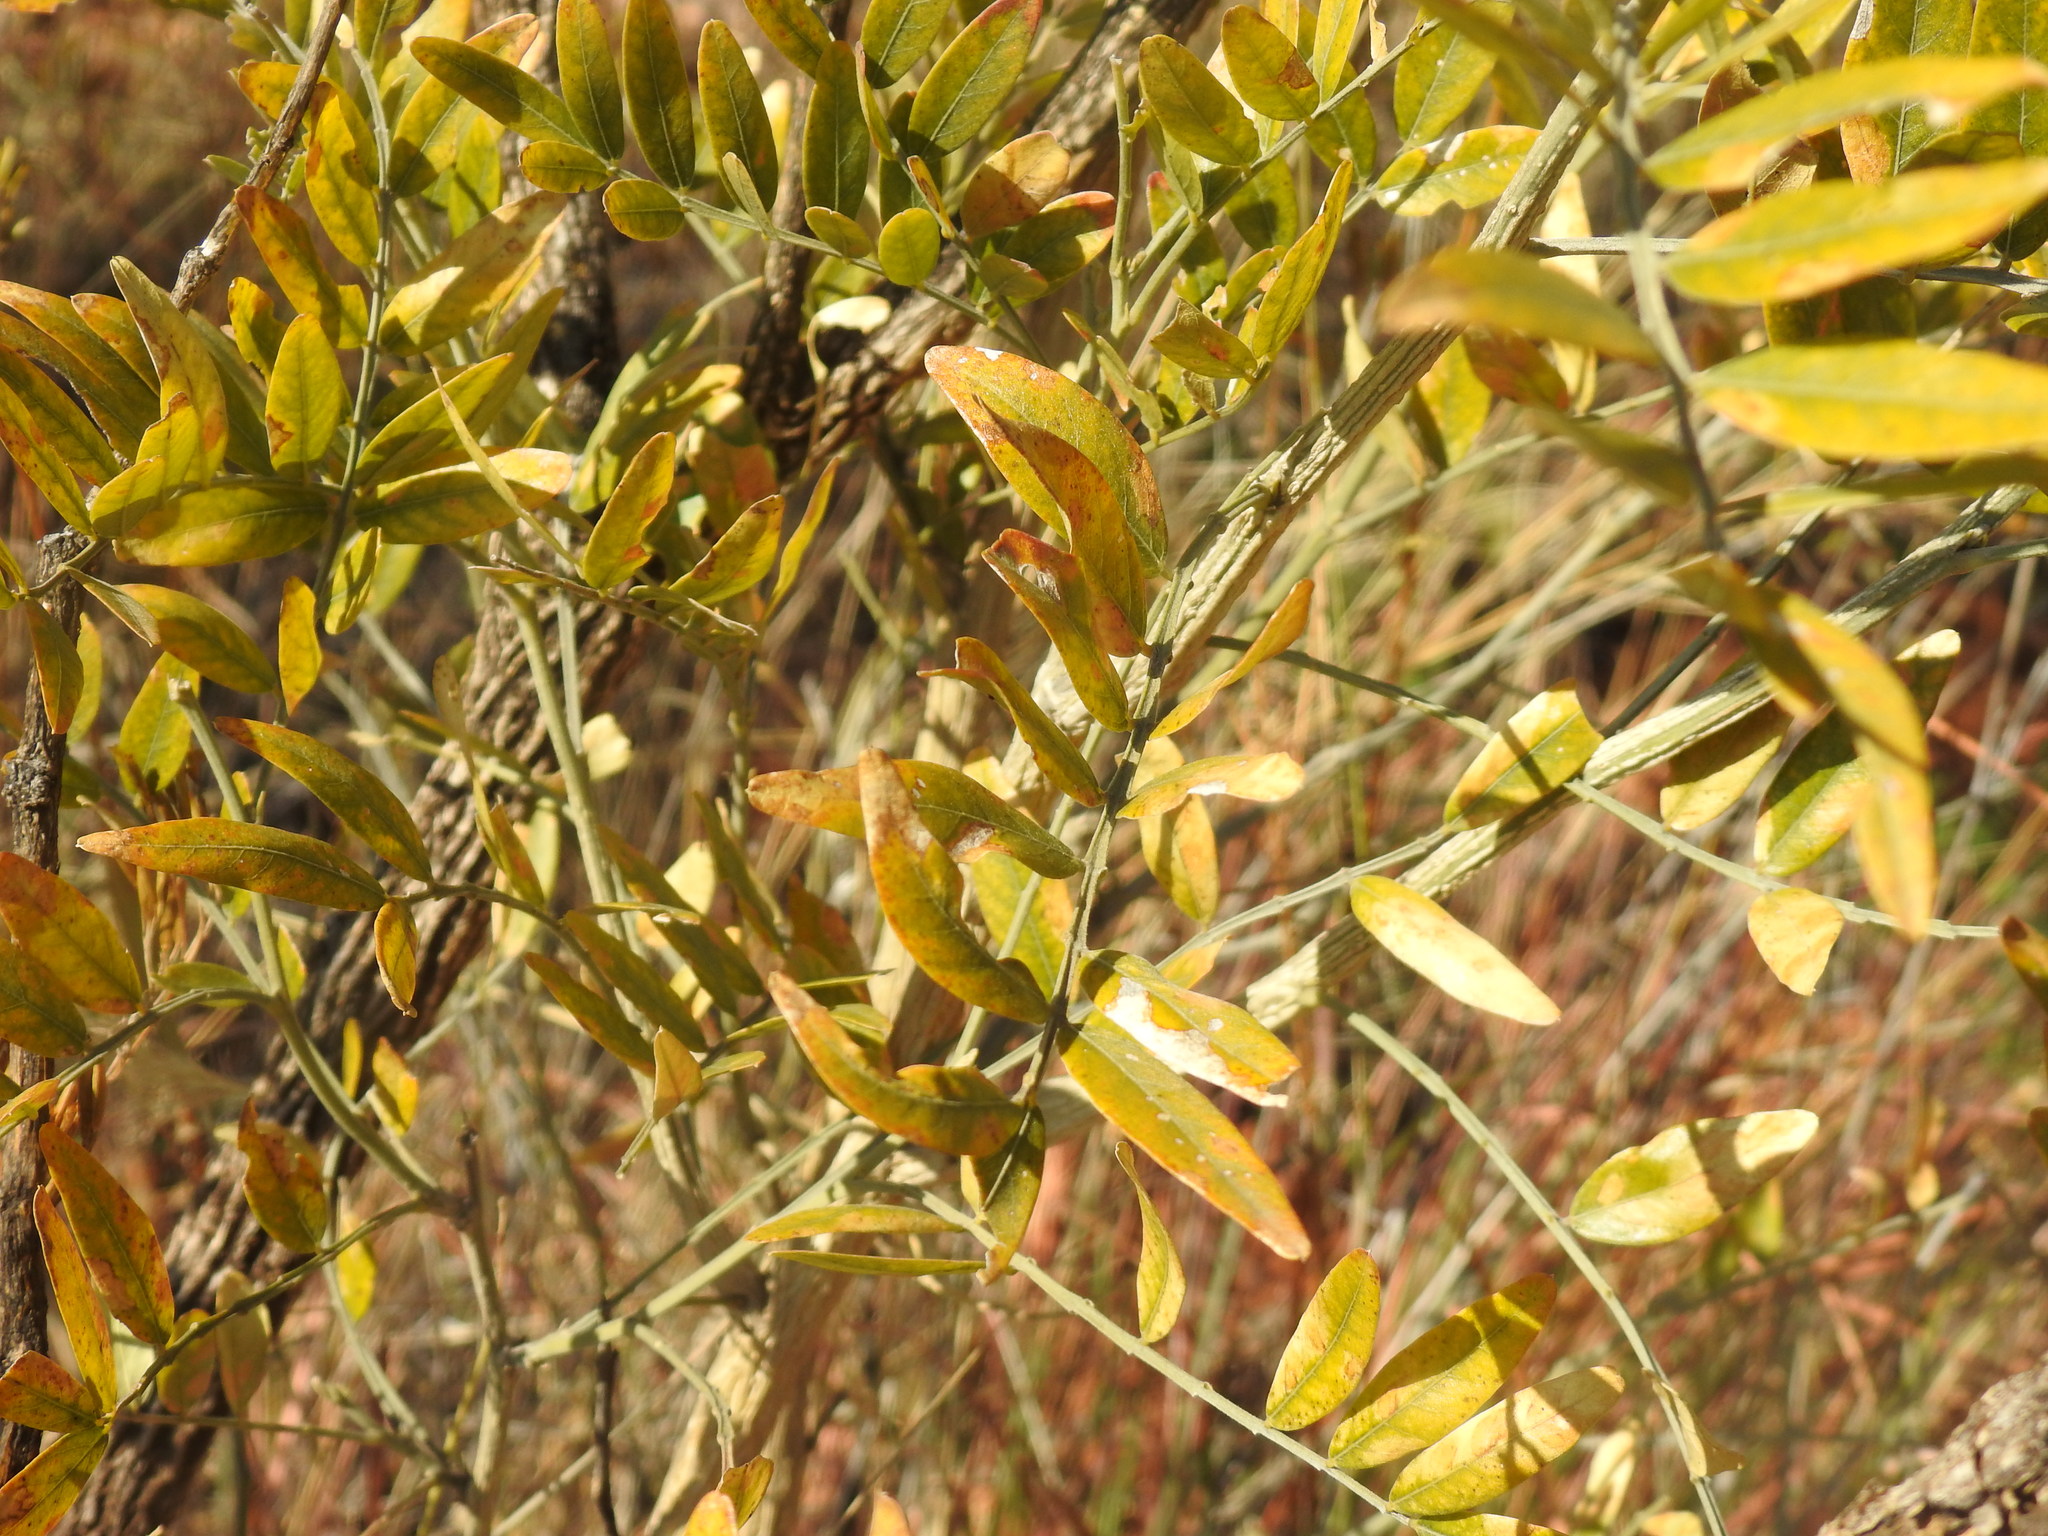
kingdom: Plantae
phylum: Tracheophyta
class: Magnoliopsida
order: Fabales
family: Fabaceae
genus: Mundulea
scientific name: Mundulea sericea
